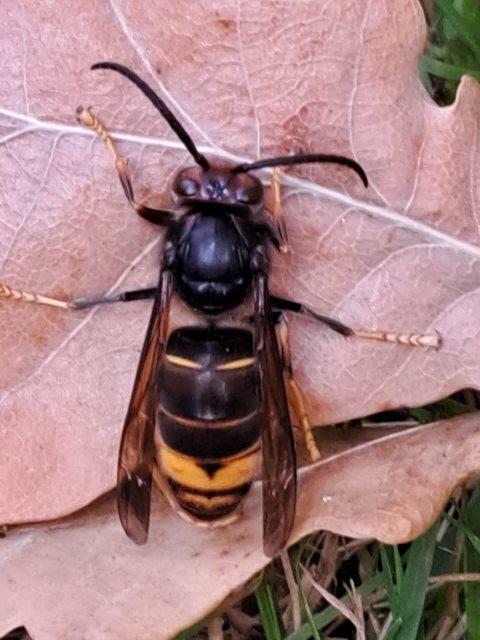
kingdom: Animalia
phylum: Arthropoda
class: Insecta
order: Hymenoptera
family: Vespidae
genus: Vespa
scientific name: Vespa velutina
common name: Asian hornet
